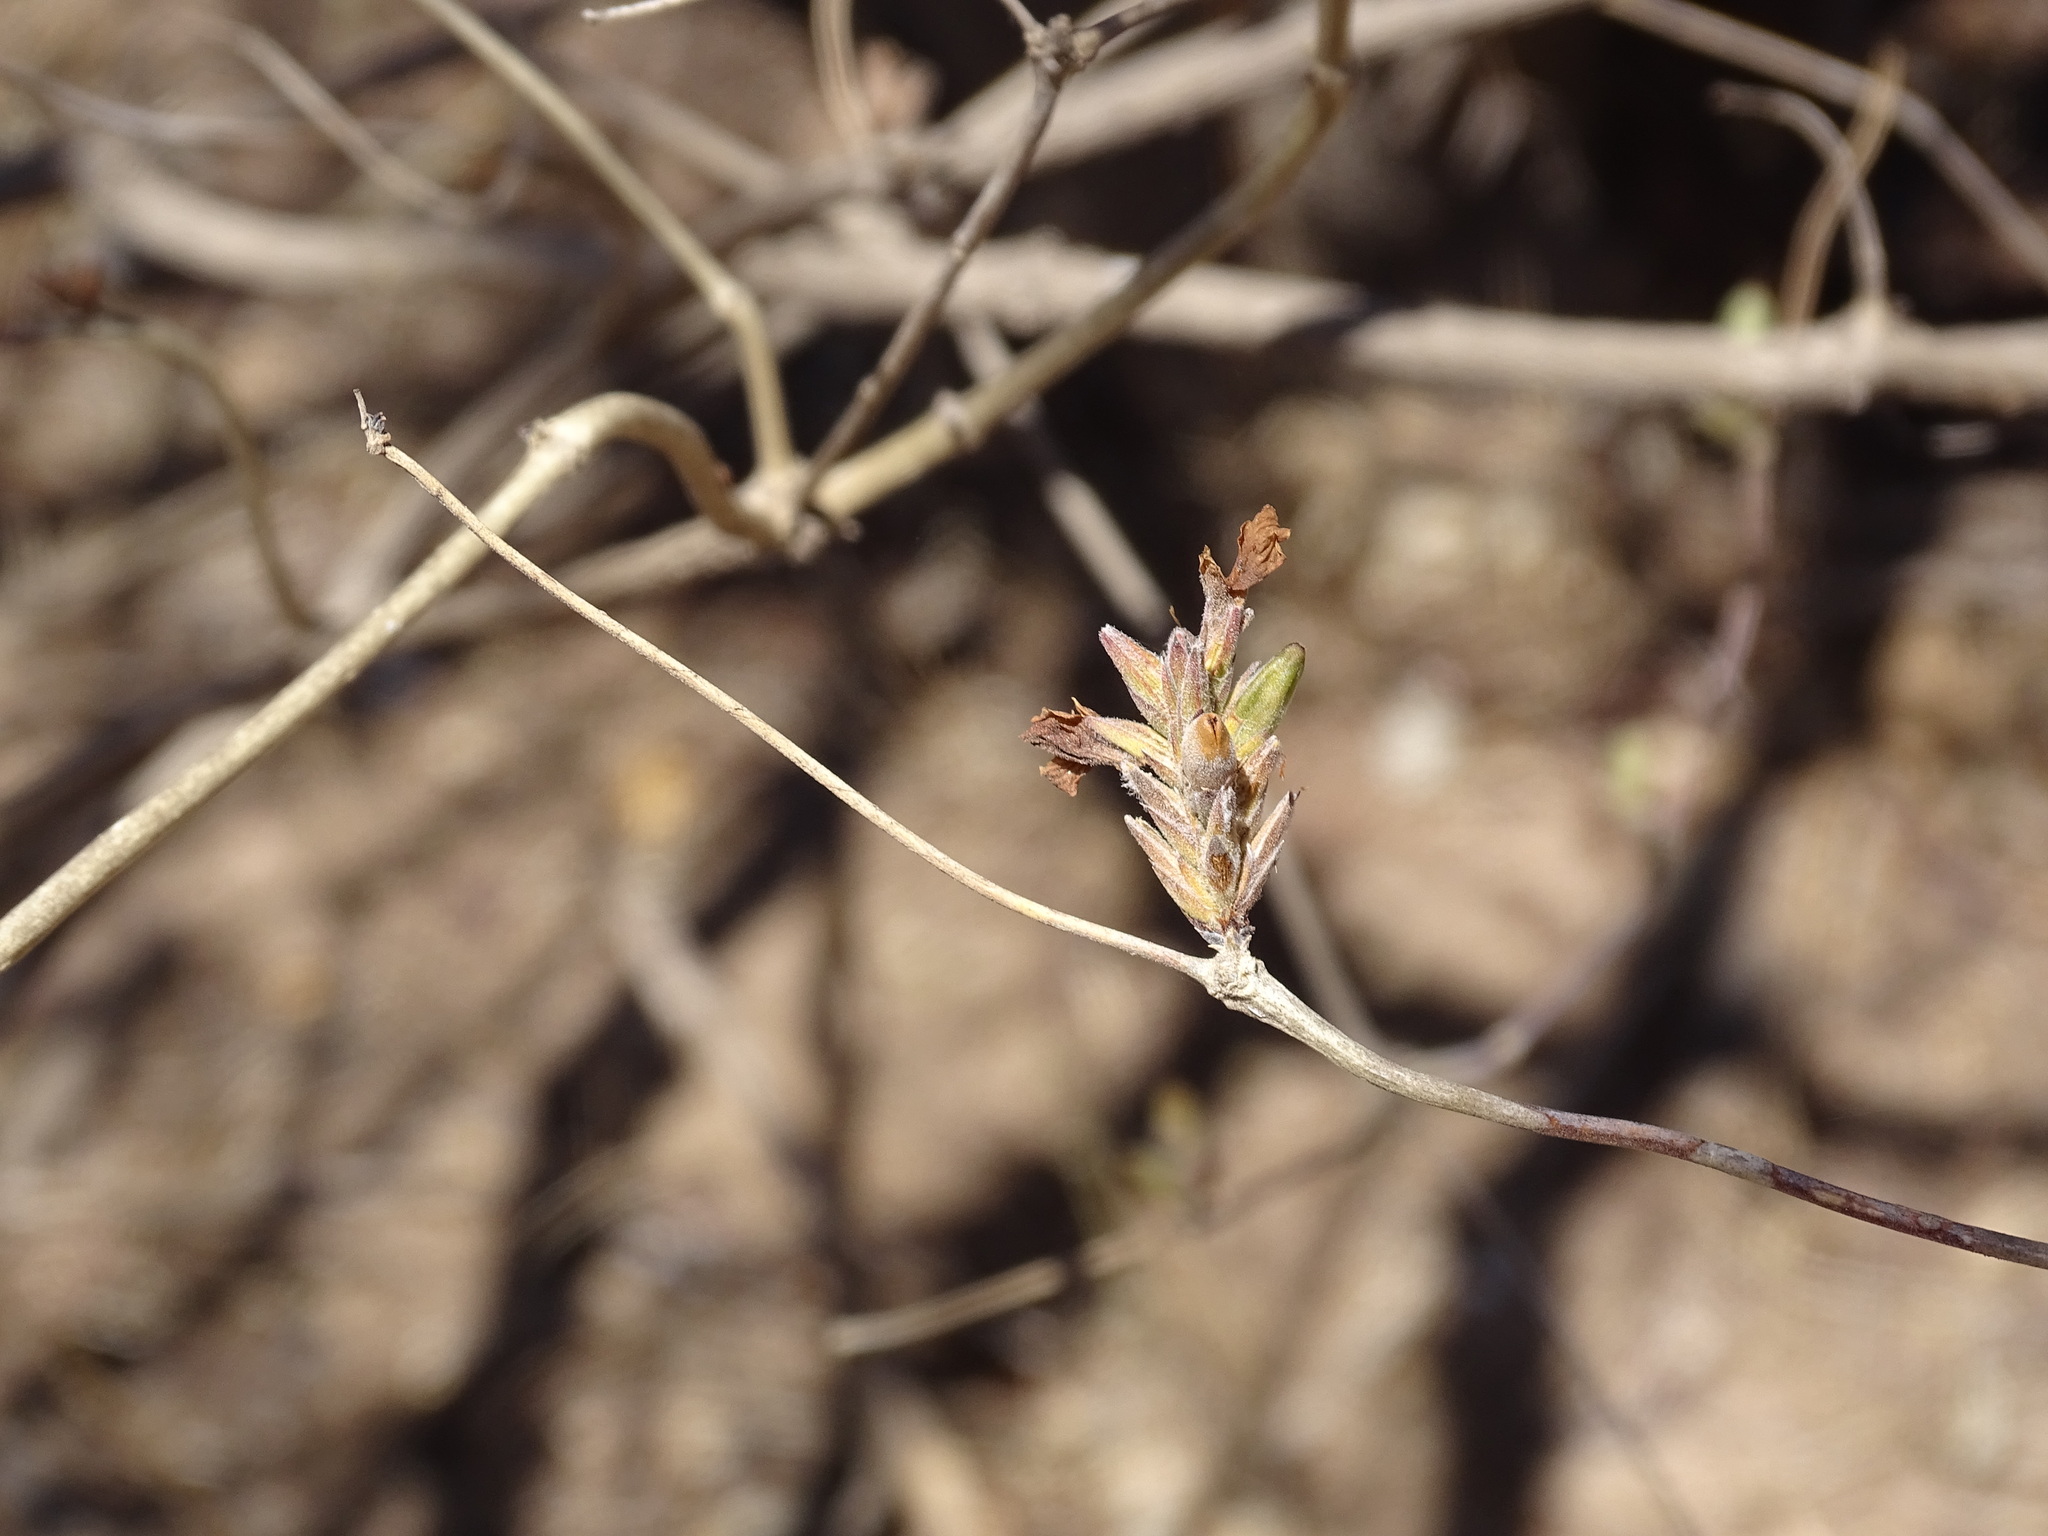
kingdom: Plantae
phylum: Tracheophyta
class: Magnoliopsida
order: Lamiales
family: Acanthaceae
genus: Holographis
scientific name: Holographis pallida
